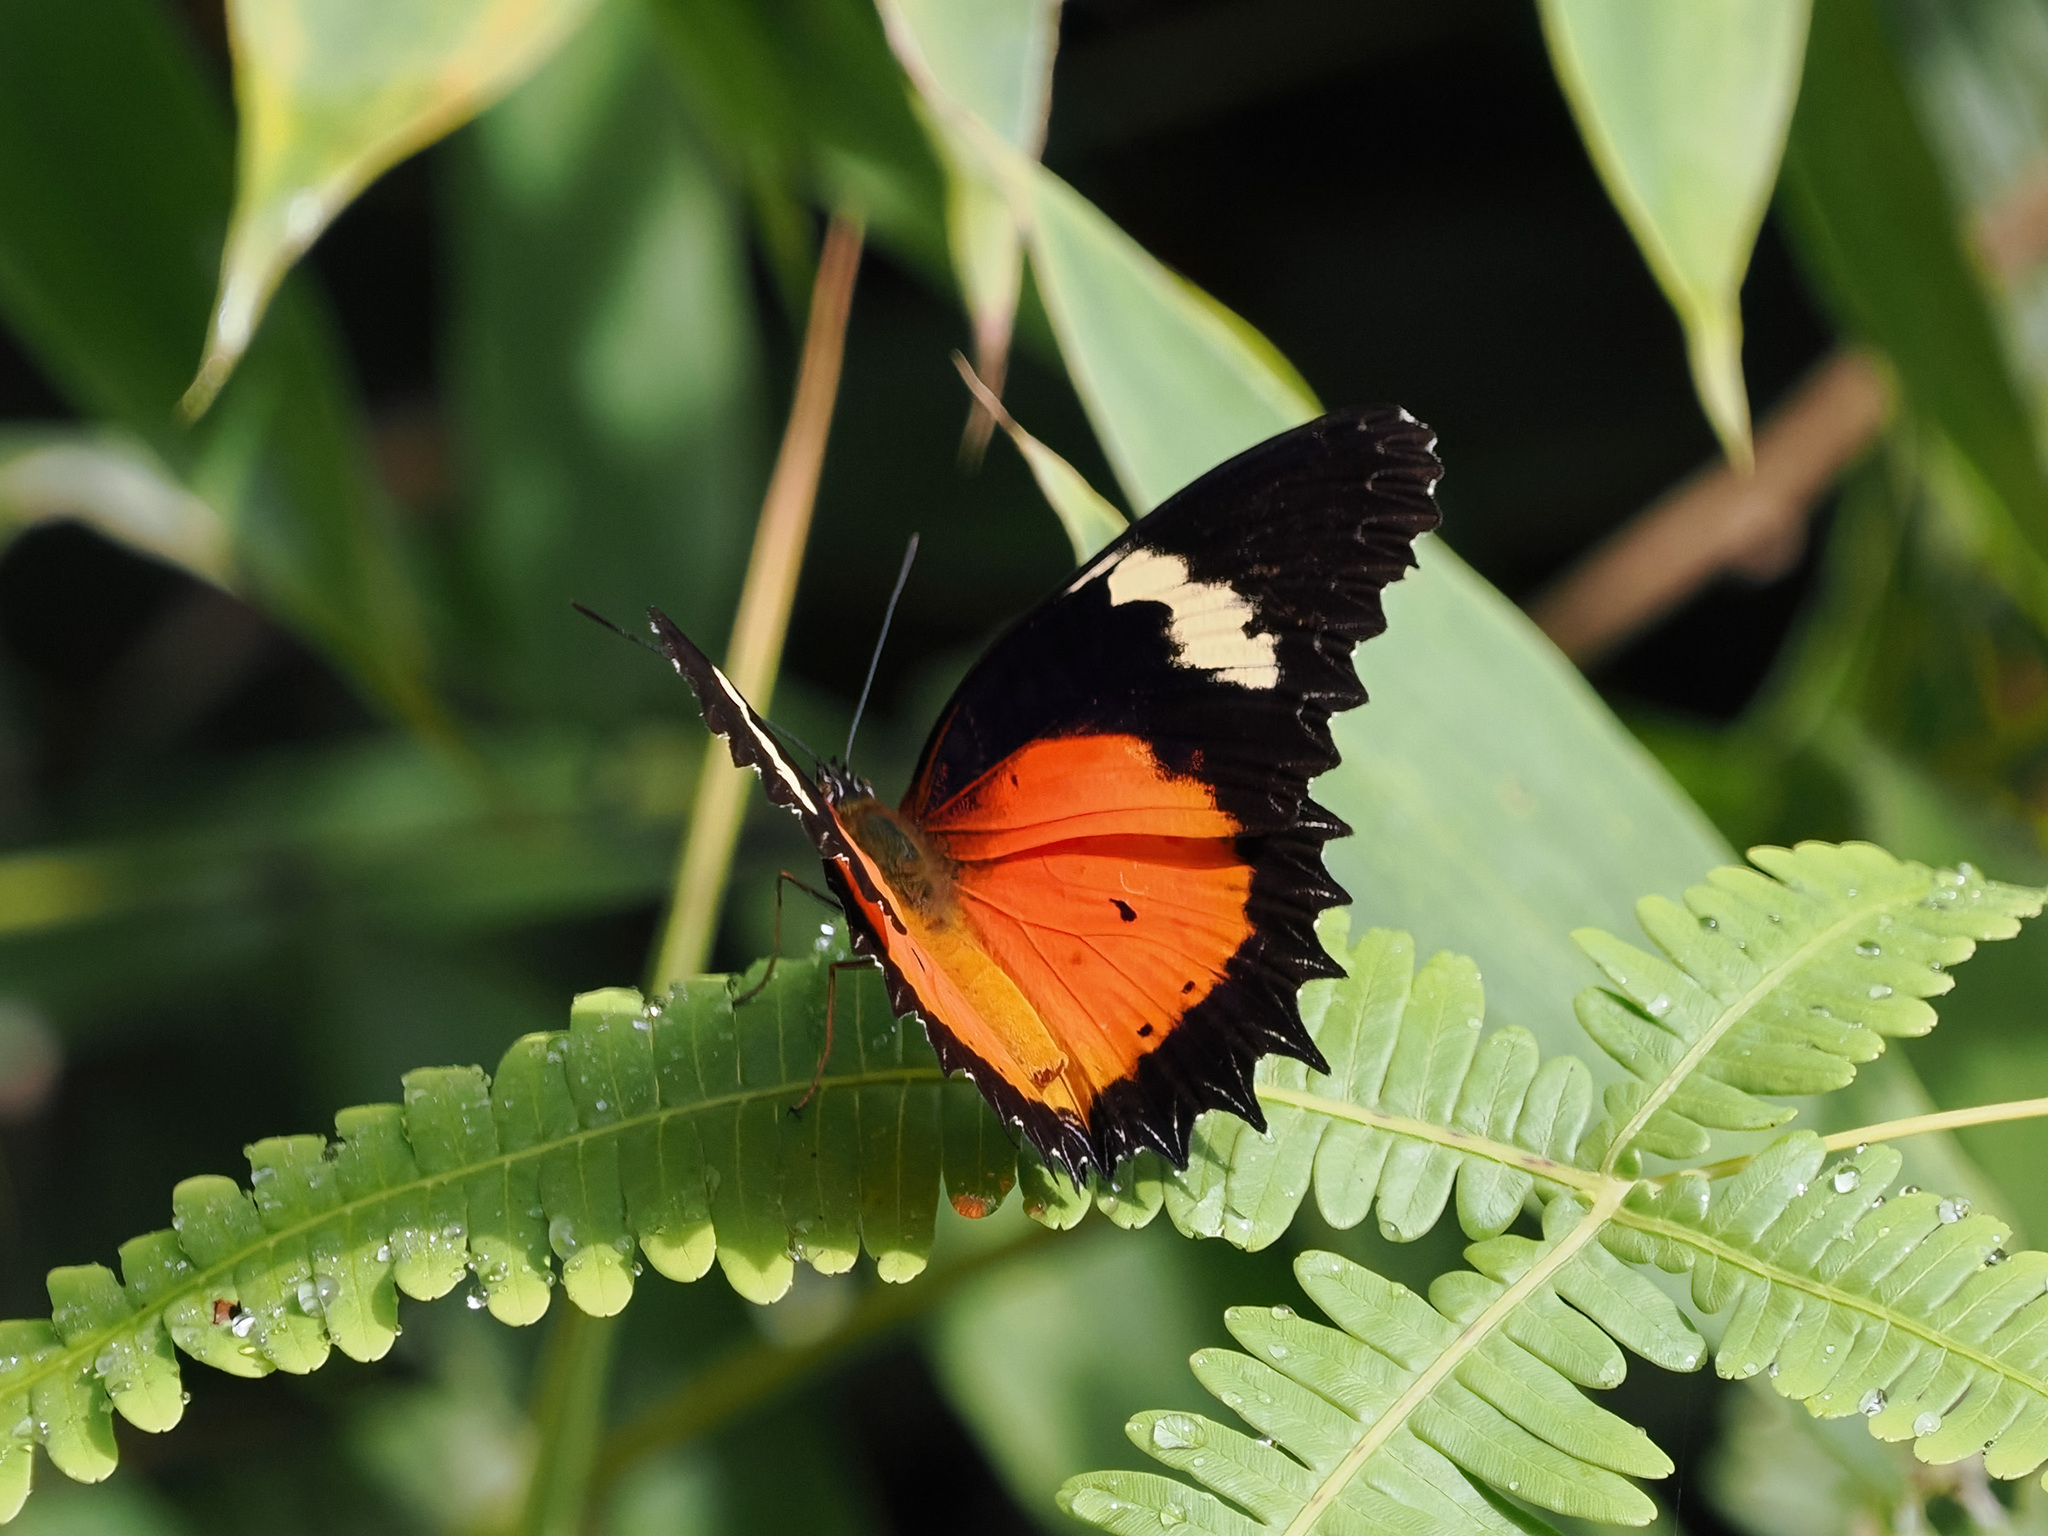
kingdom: Animalia
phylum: Arthropoda
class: Insecta
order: Lepidoptera
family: Nymphalidae
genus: Cethosia
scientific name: Cethosia hypsea
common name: Malayan lacewing butterfly
